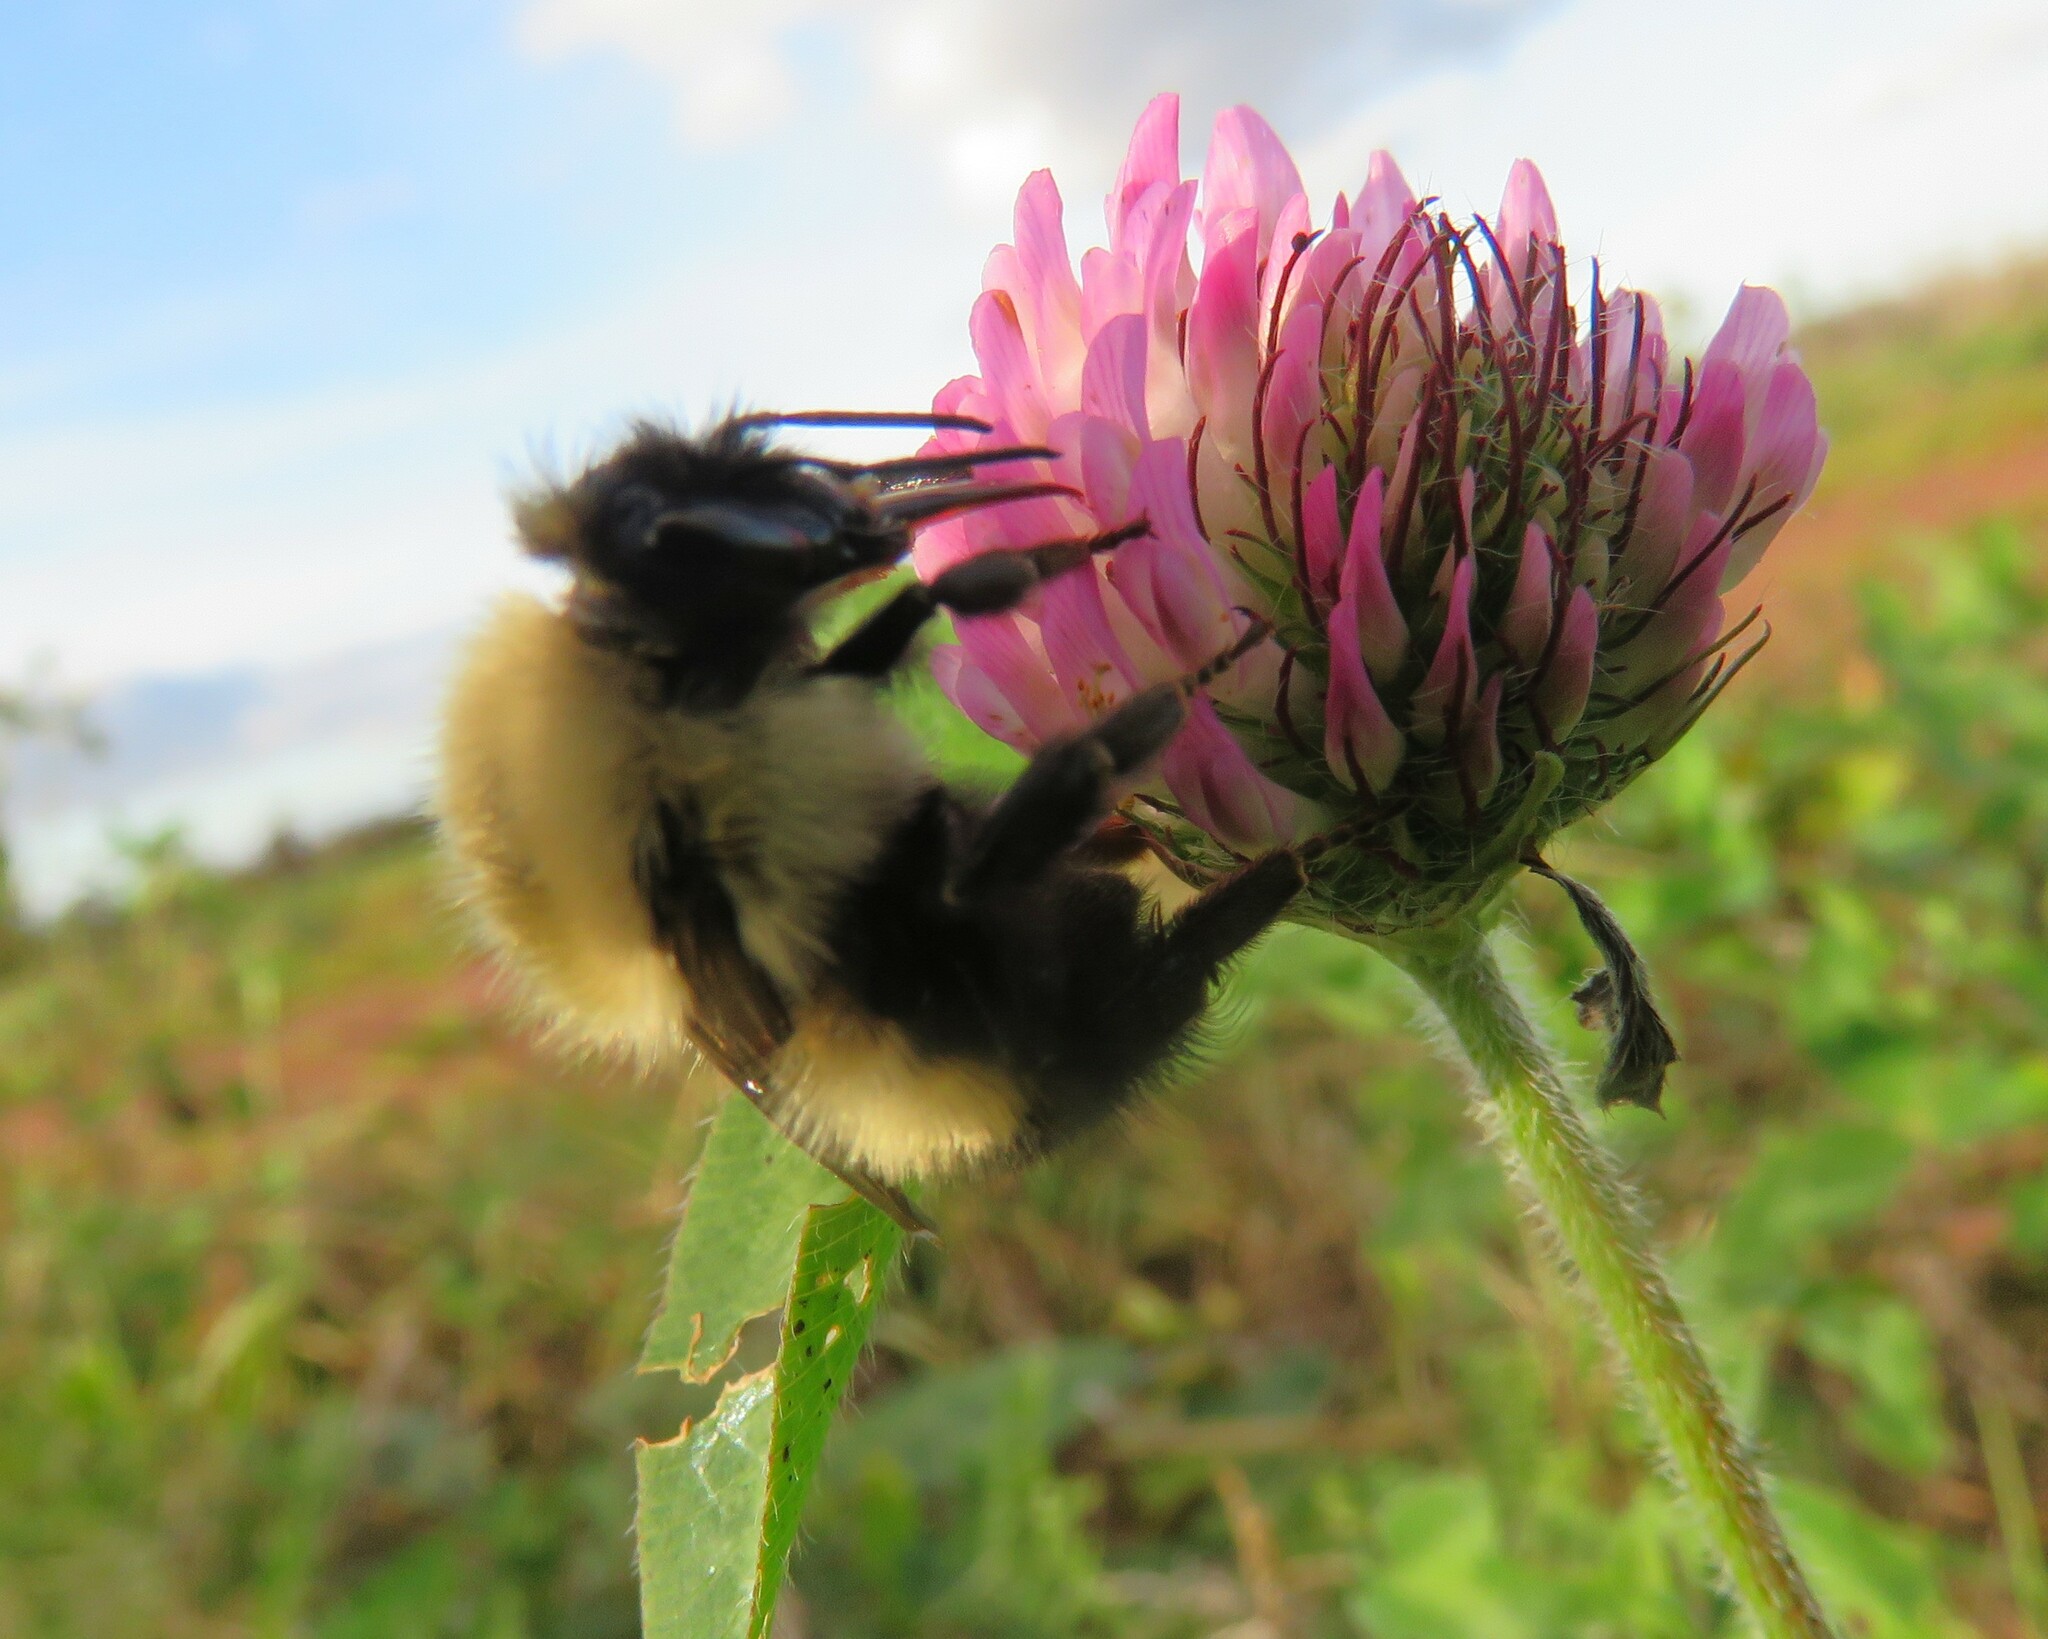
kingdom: Animalia
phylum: Arthropoda
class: Insecta
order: Hymenoptera
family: Apidae
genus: Bombus
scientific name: Bombus perplexus
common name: Confusing bumble bee
